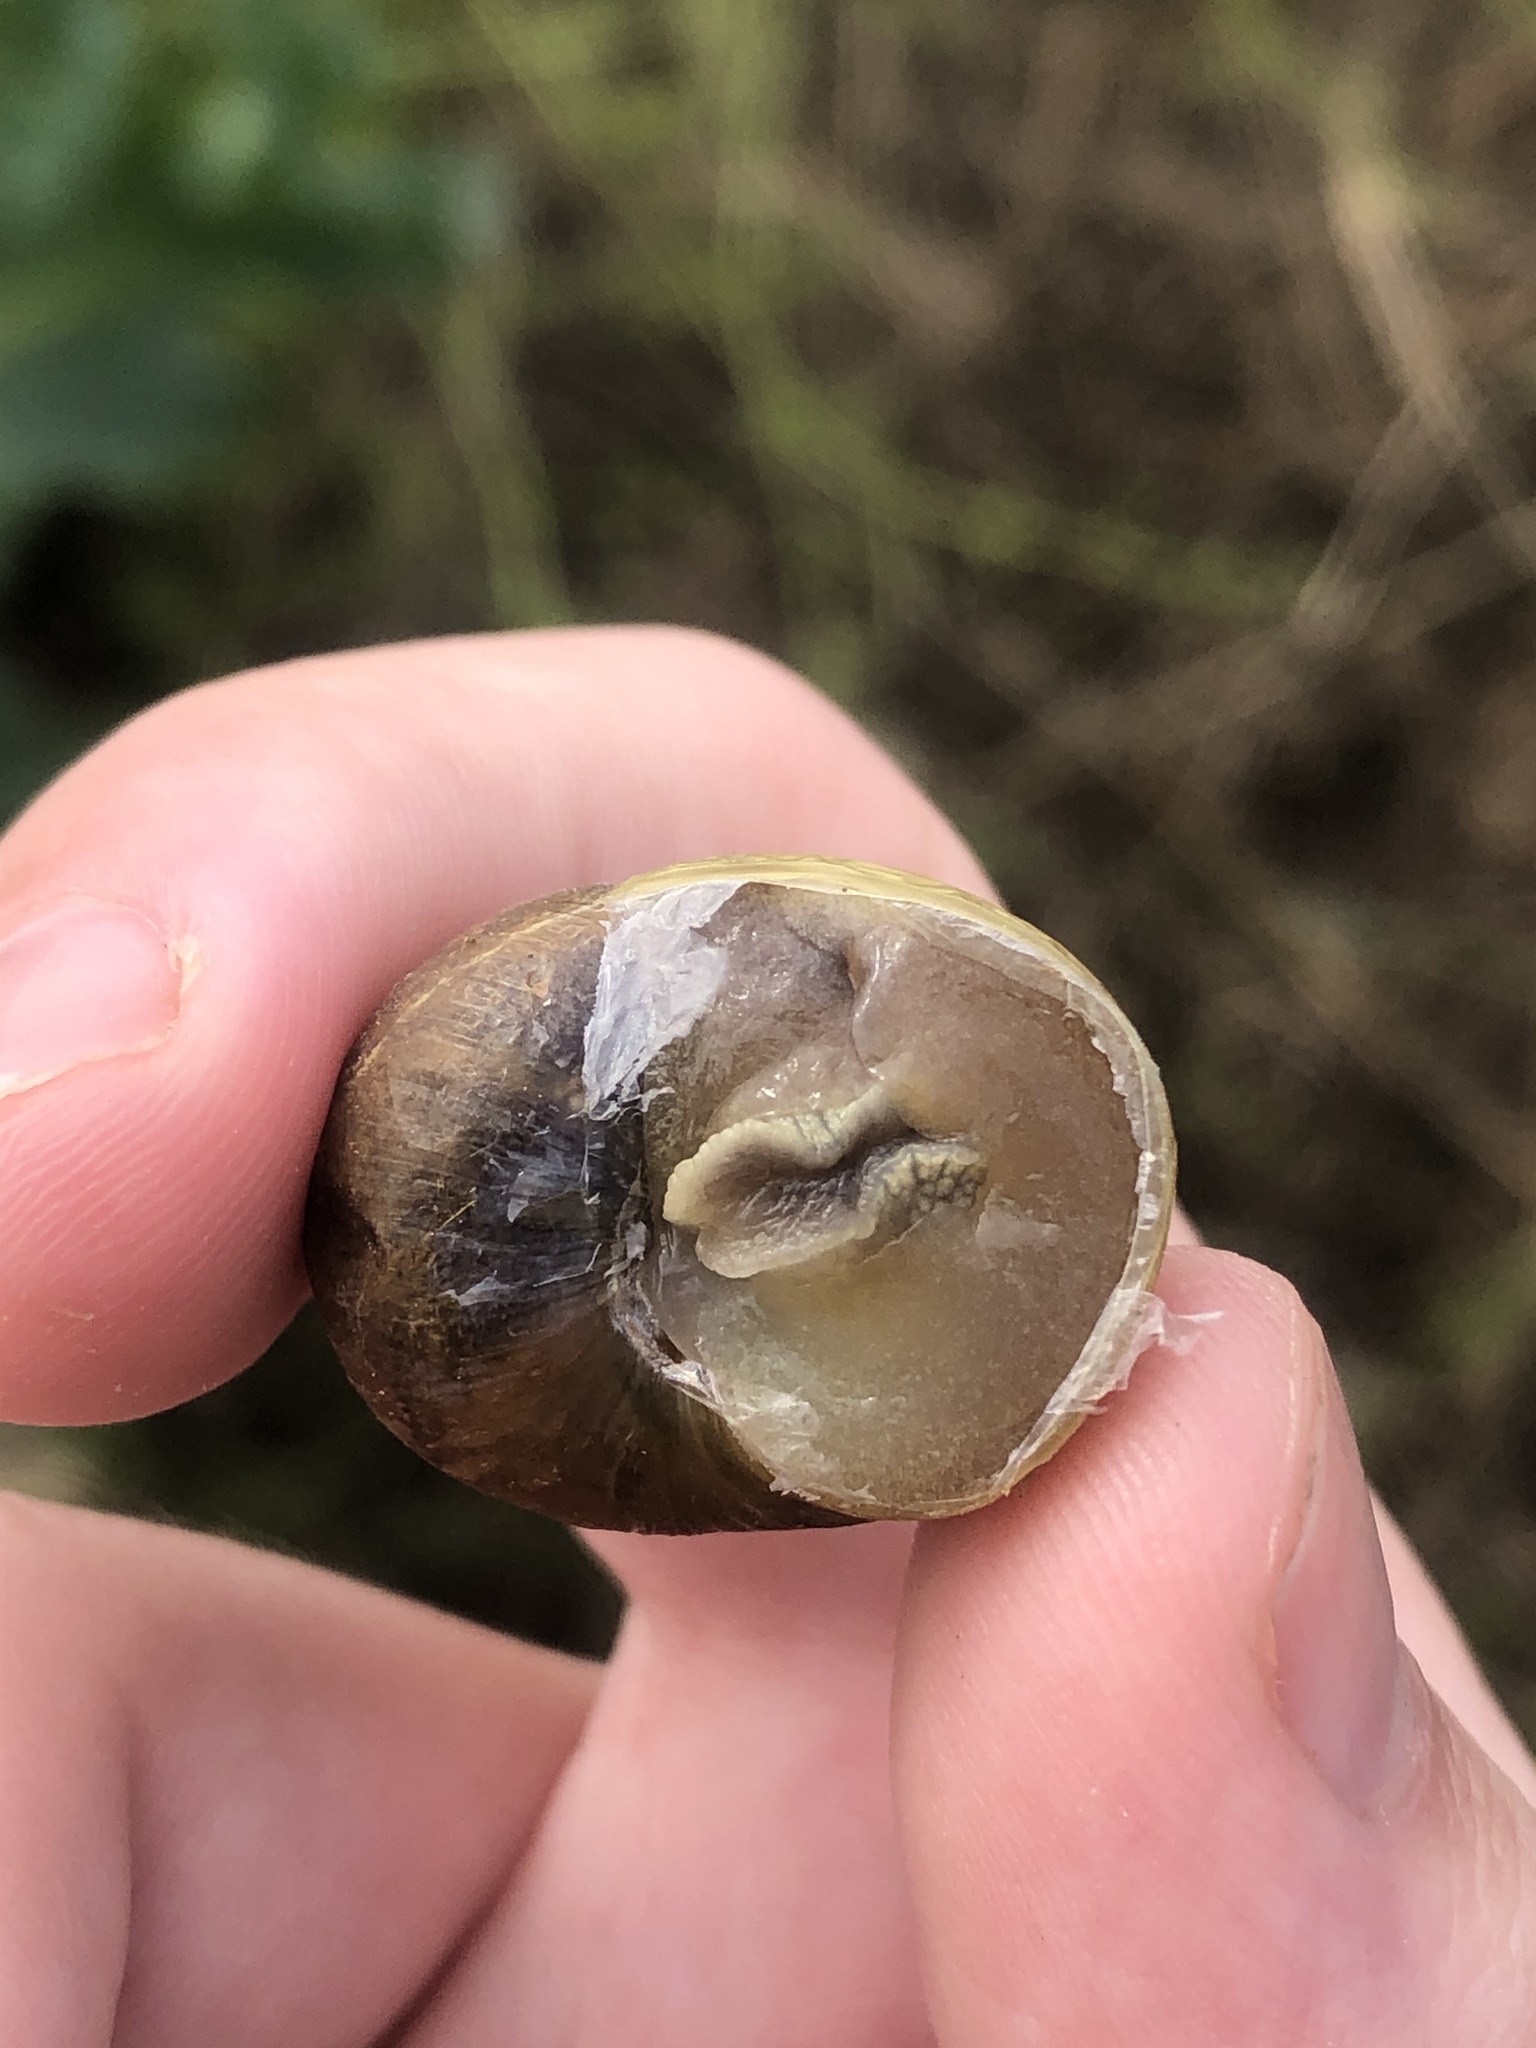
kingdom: Animalia
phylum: Mollusca
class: Gastropoda
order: Stylommatophora
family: Helicidae
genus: Cornu
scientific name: Cornu aspersum
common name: Brown garden snail
